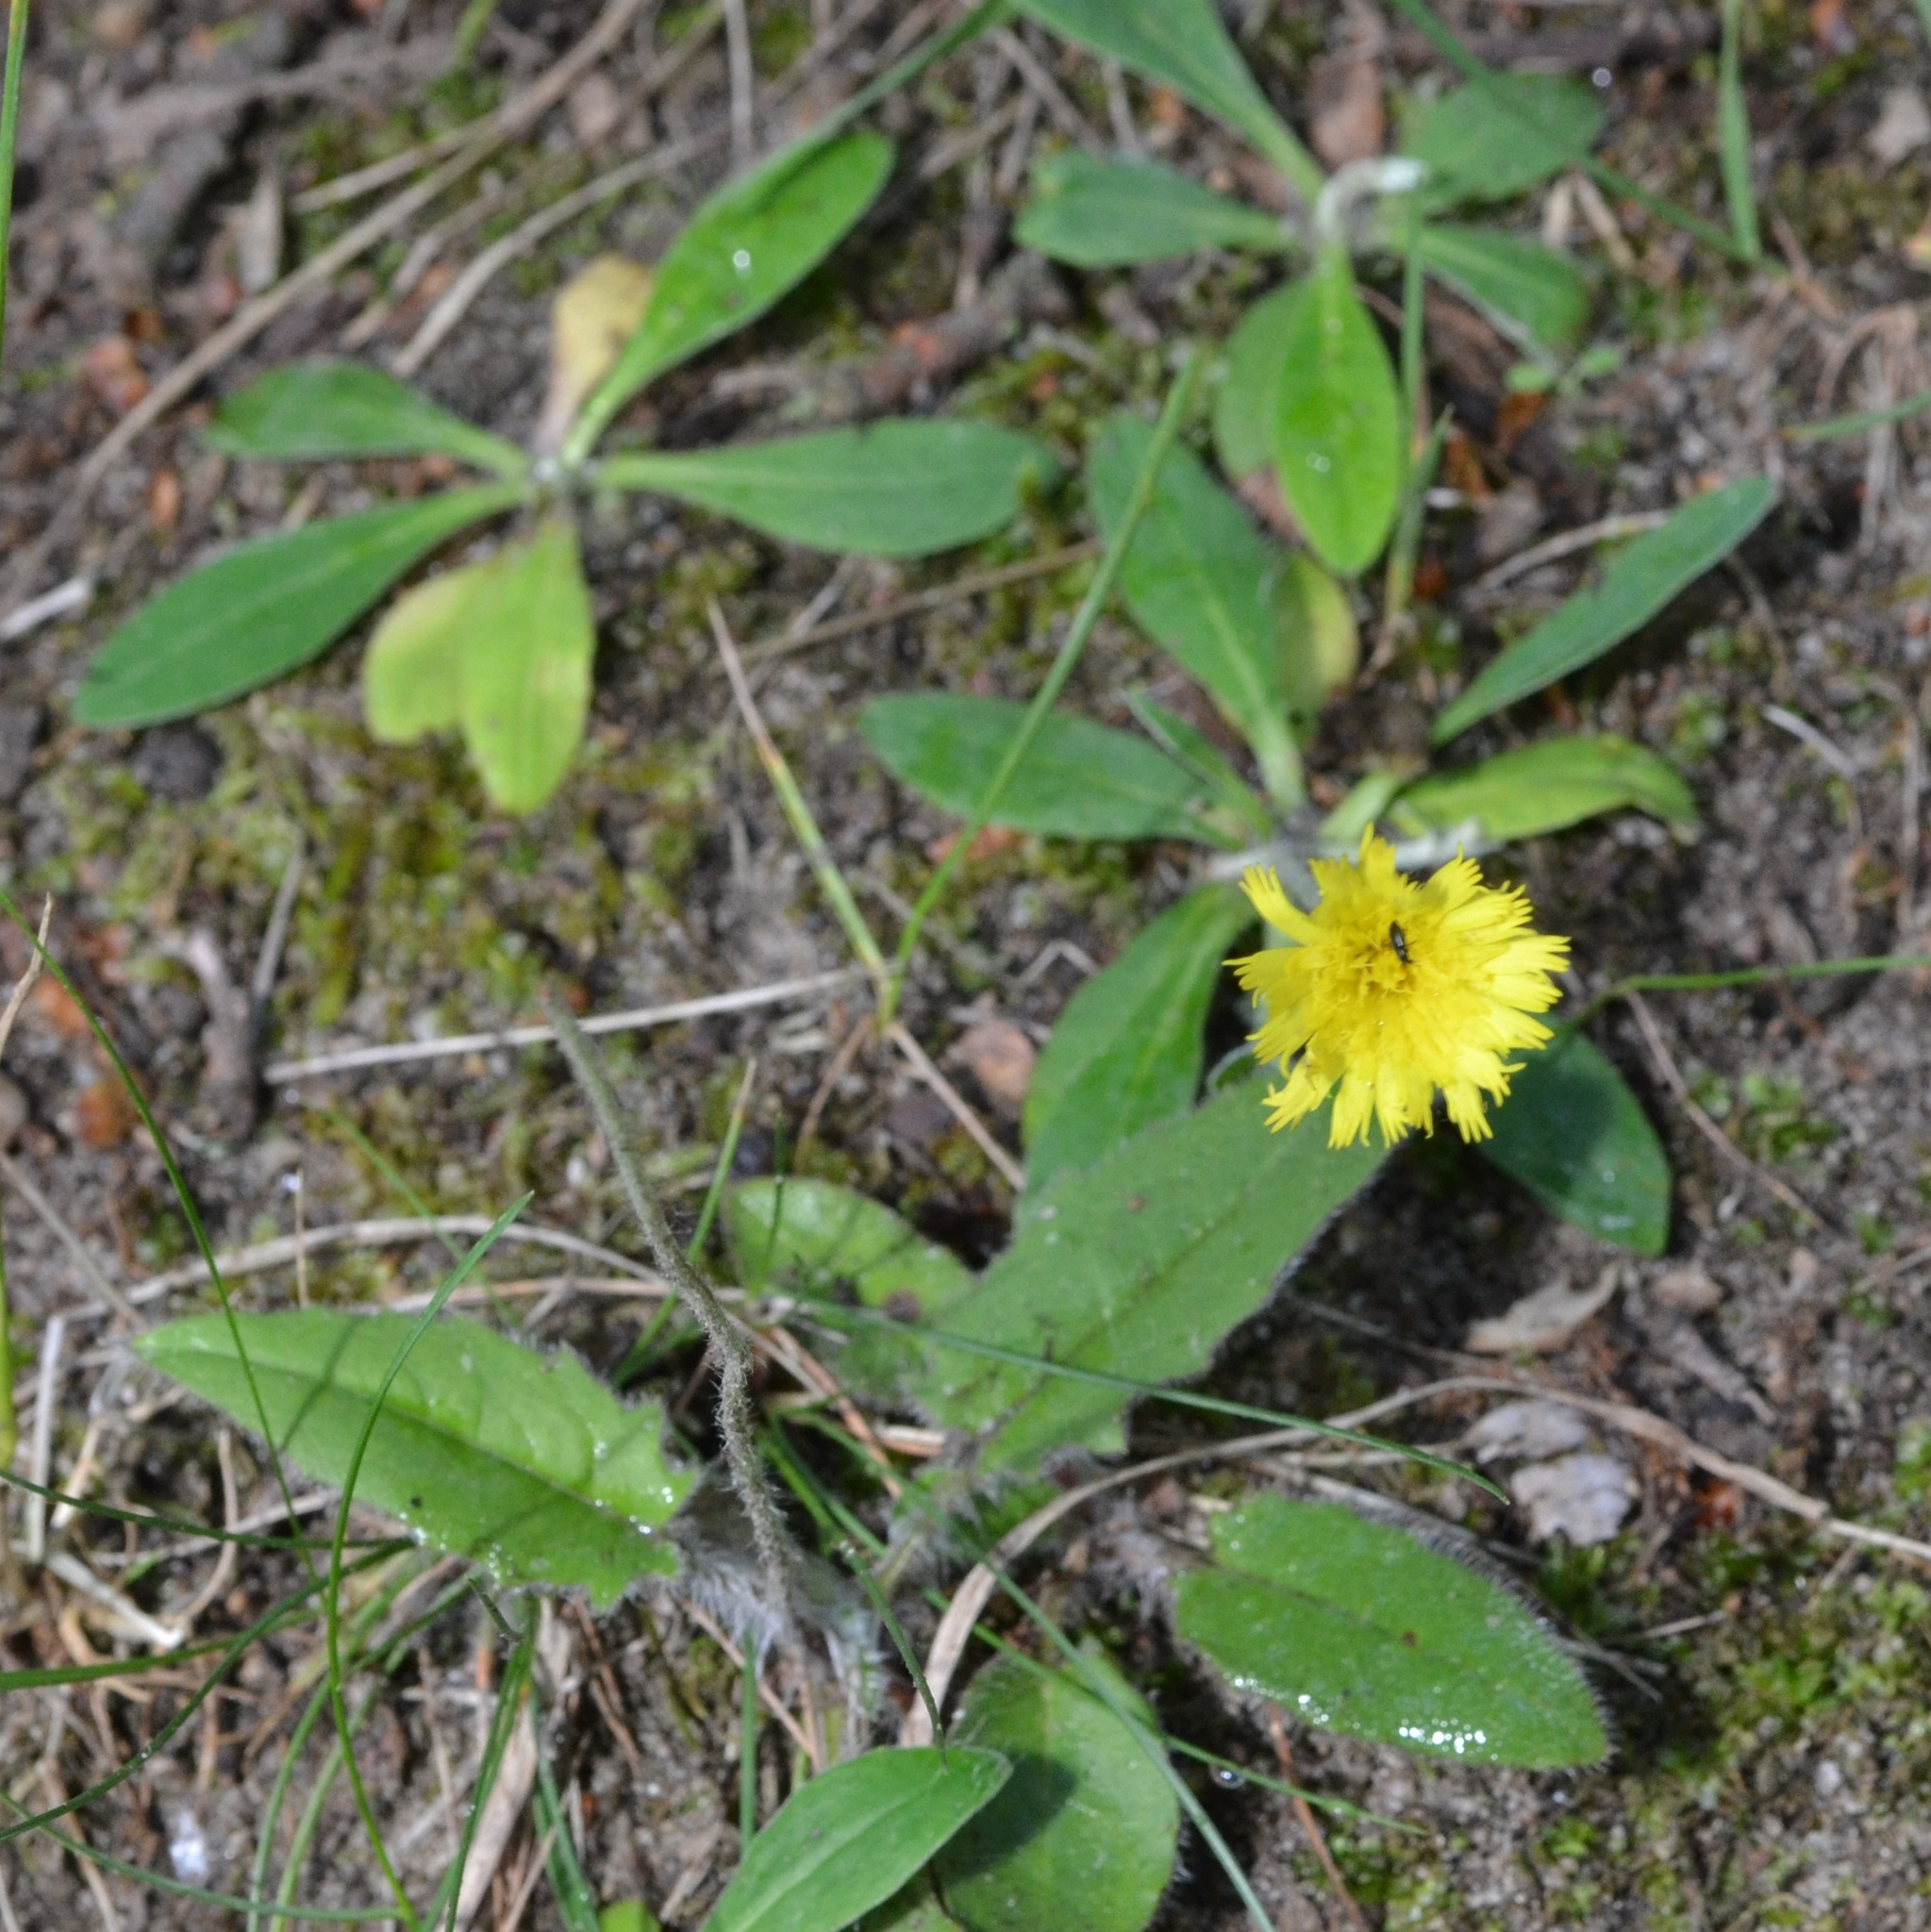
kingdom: Plantae
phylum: Tracheophyta
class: Magnoliopsida
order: Asterales
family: Asteraceae
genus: Pilosella
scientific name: Pilosella officinarum
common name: Mouse-ear hawkweed
